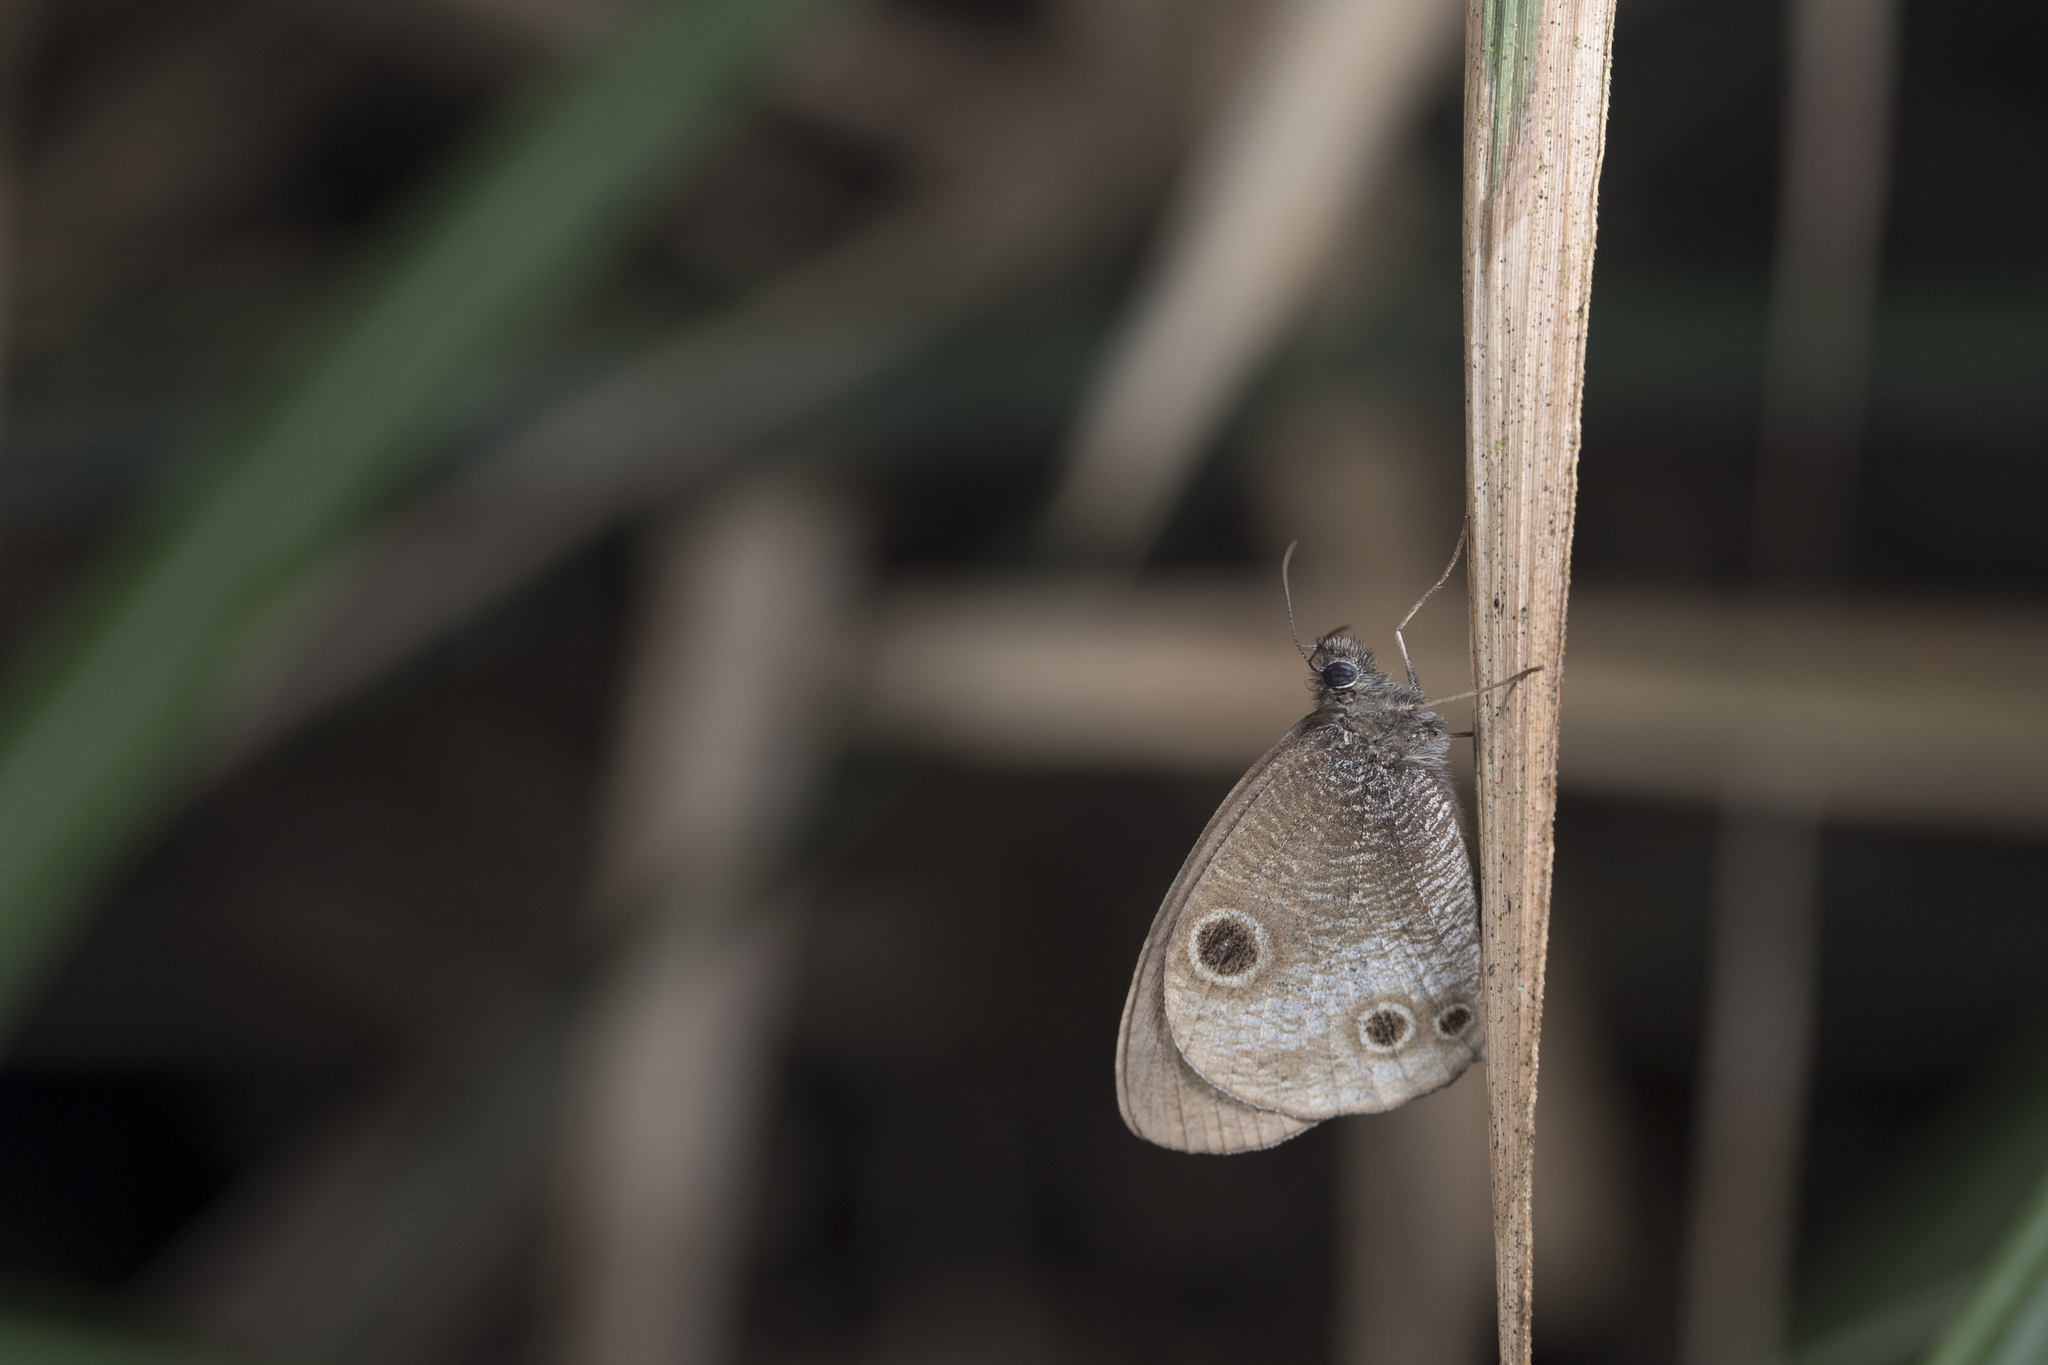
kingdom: Animalia
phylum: Arthropoda
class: Insecta
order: Lepidoptera
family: Nymphalidae
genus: Ypthima
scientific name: Ypthima motschulskyi
